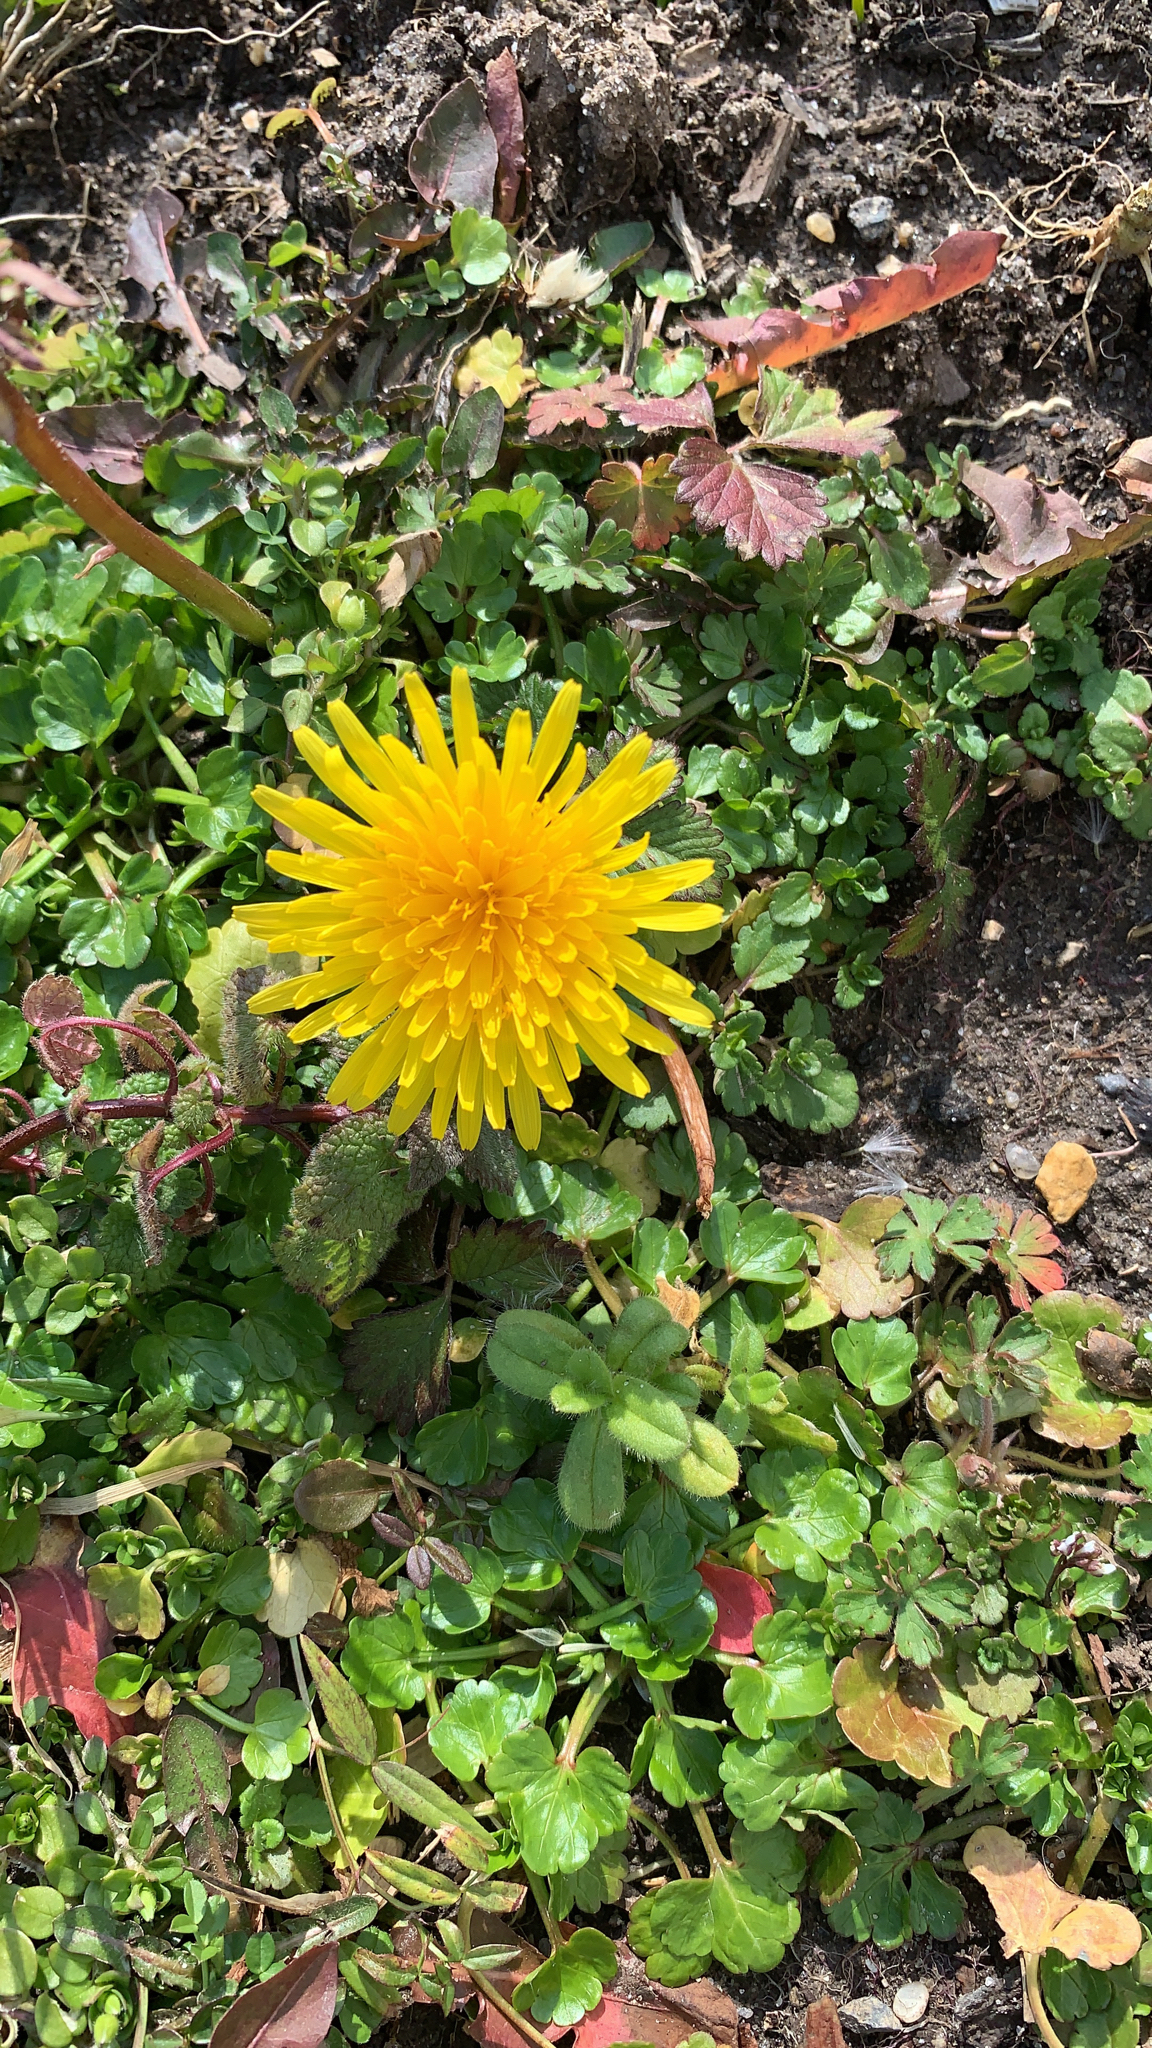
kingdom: Plantae
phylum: Tracheophyta
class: Magnoliopsida
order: Asterales
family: Asteraceae
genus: Taraxacum
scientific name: Taraxacum officinale
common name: Common dandelion
